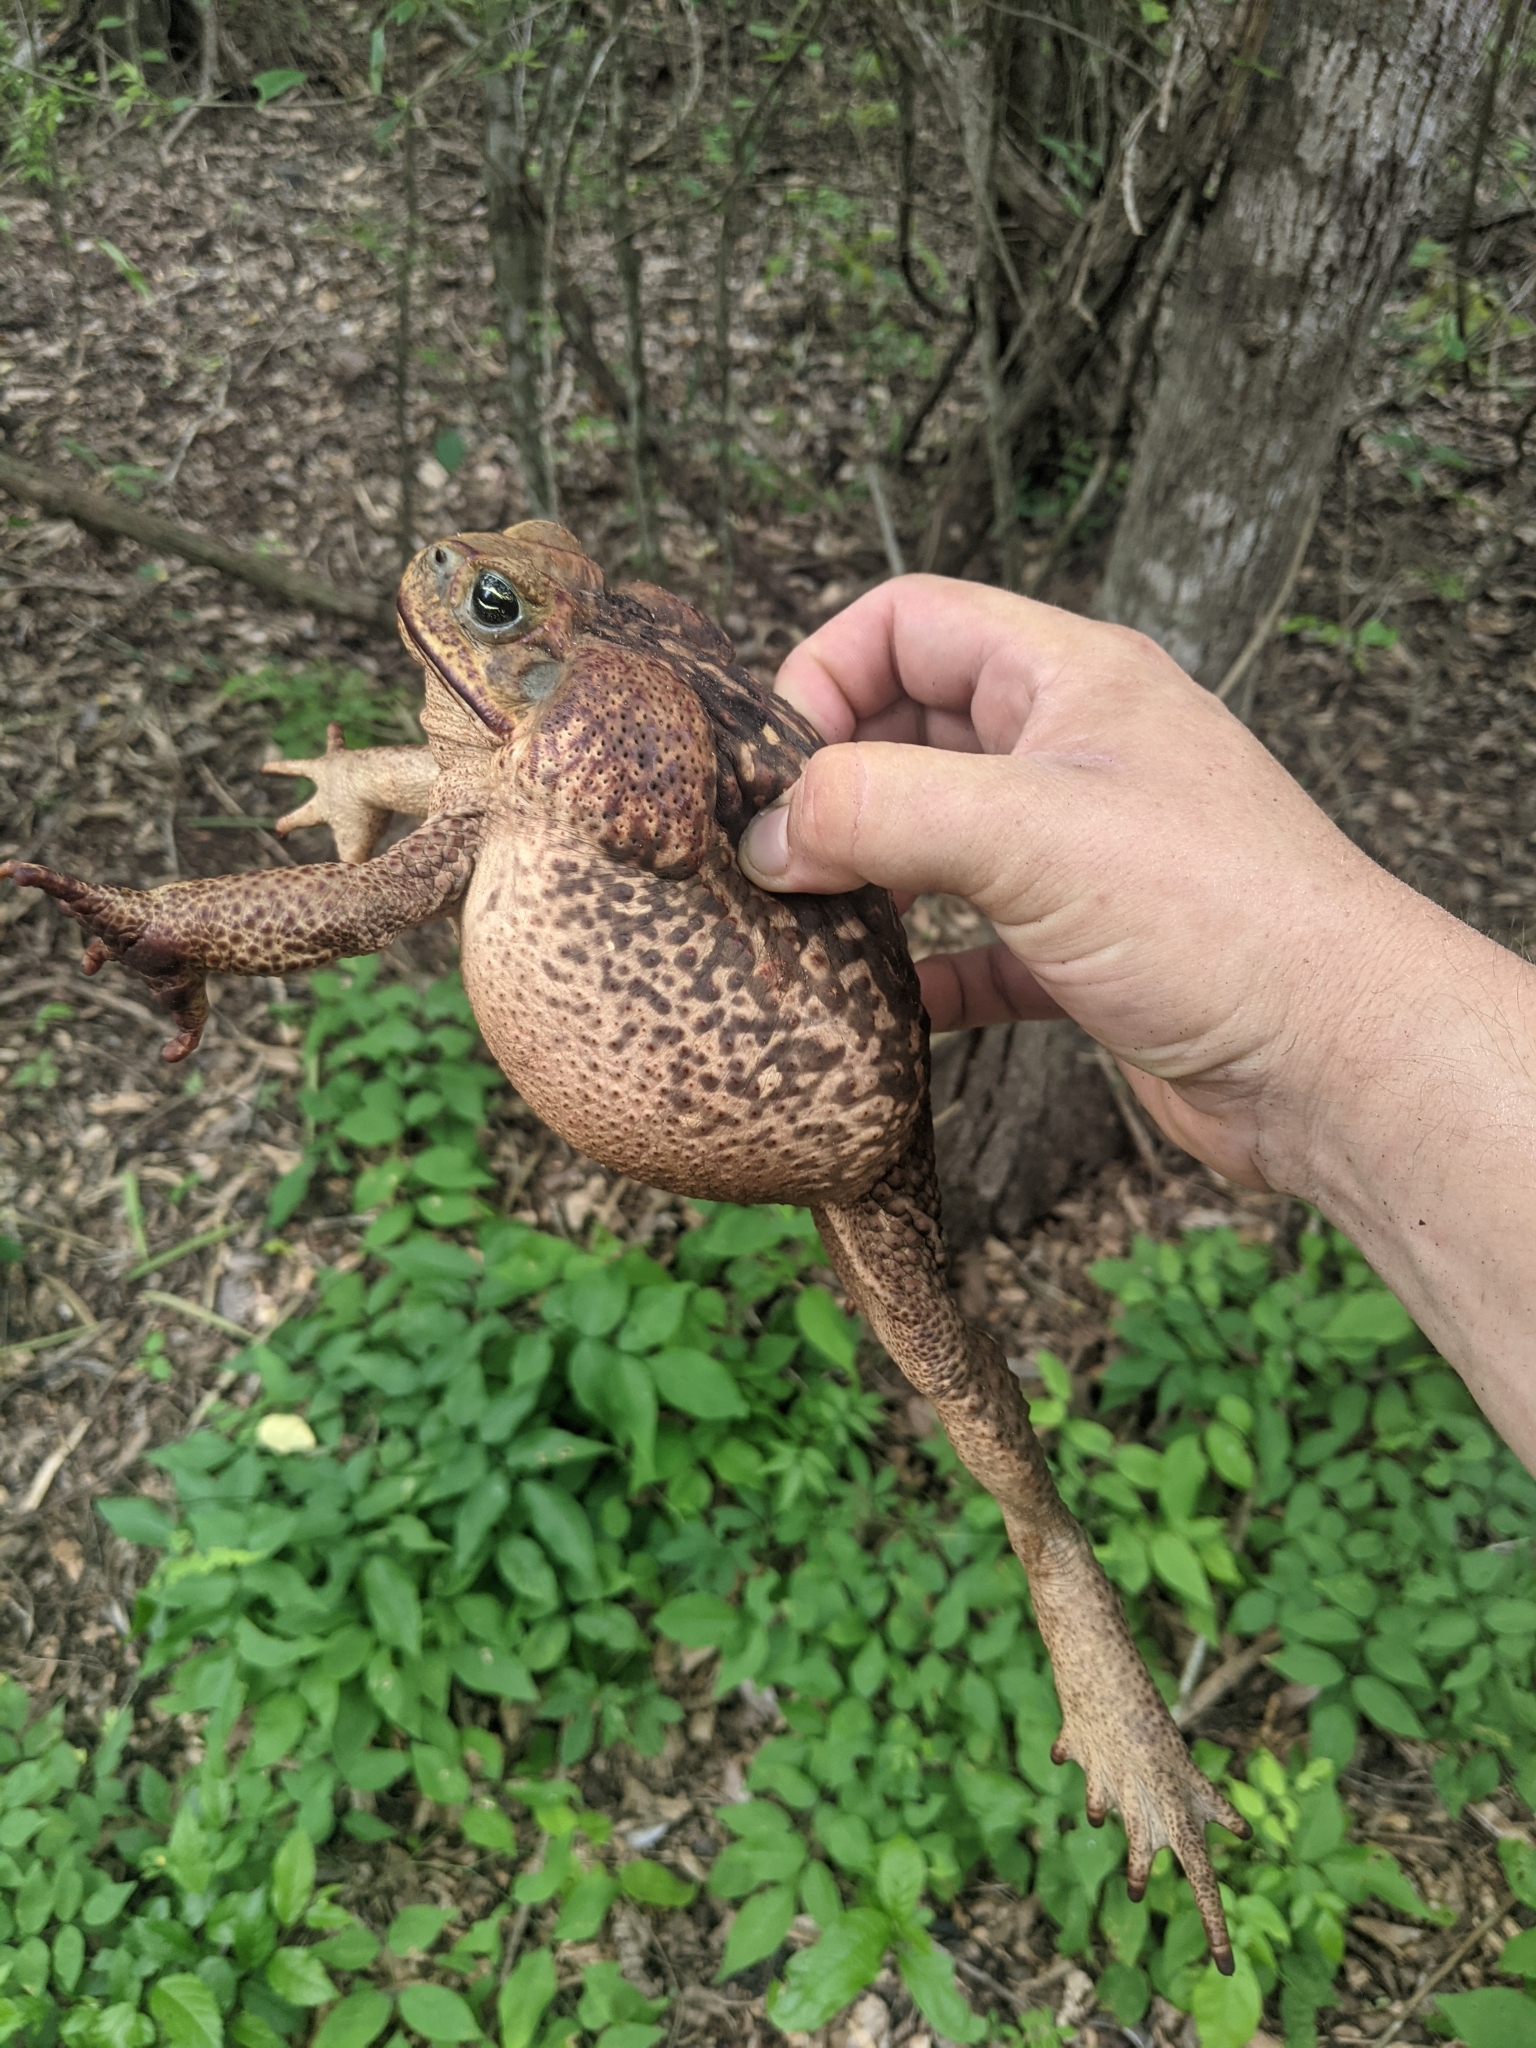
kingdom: Animalia
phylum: Chordata
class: Amphibia
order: Anura
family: Bufonidae
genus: Rhinella
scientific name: Rhinella horribilis
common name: Mesoamerican cane toad
